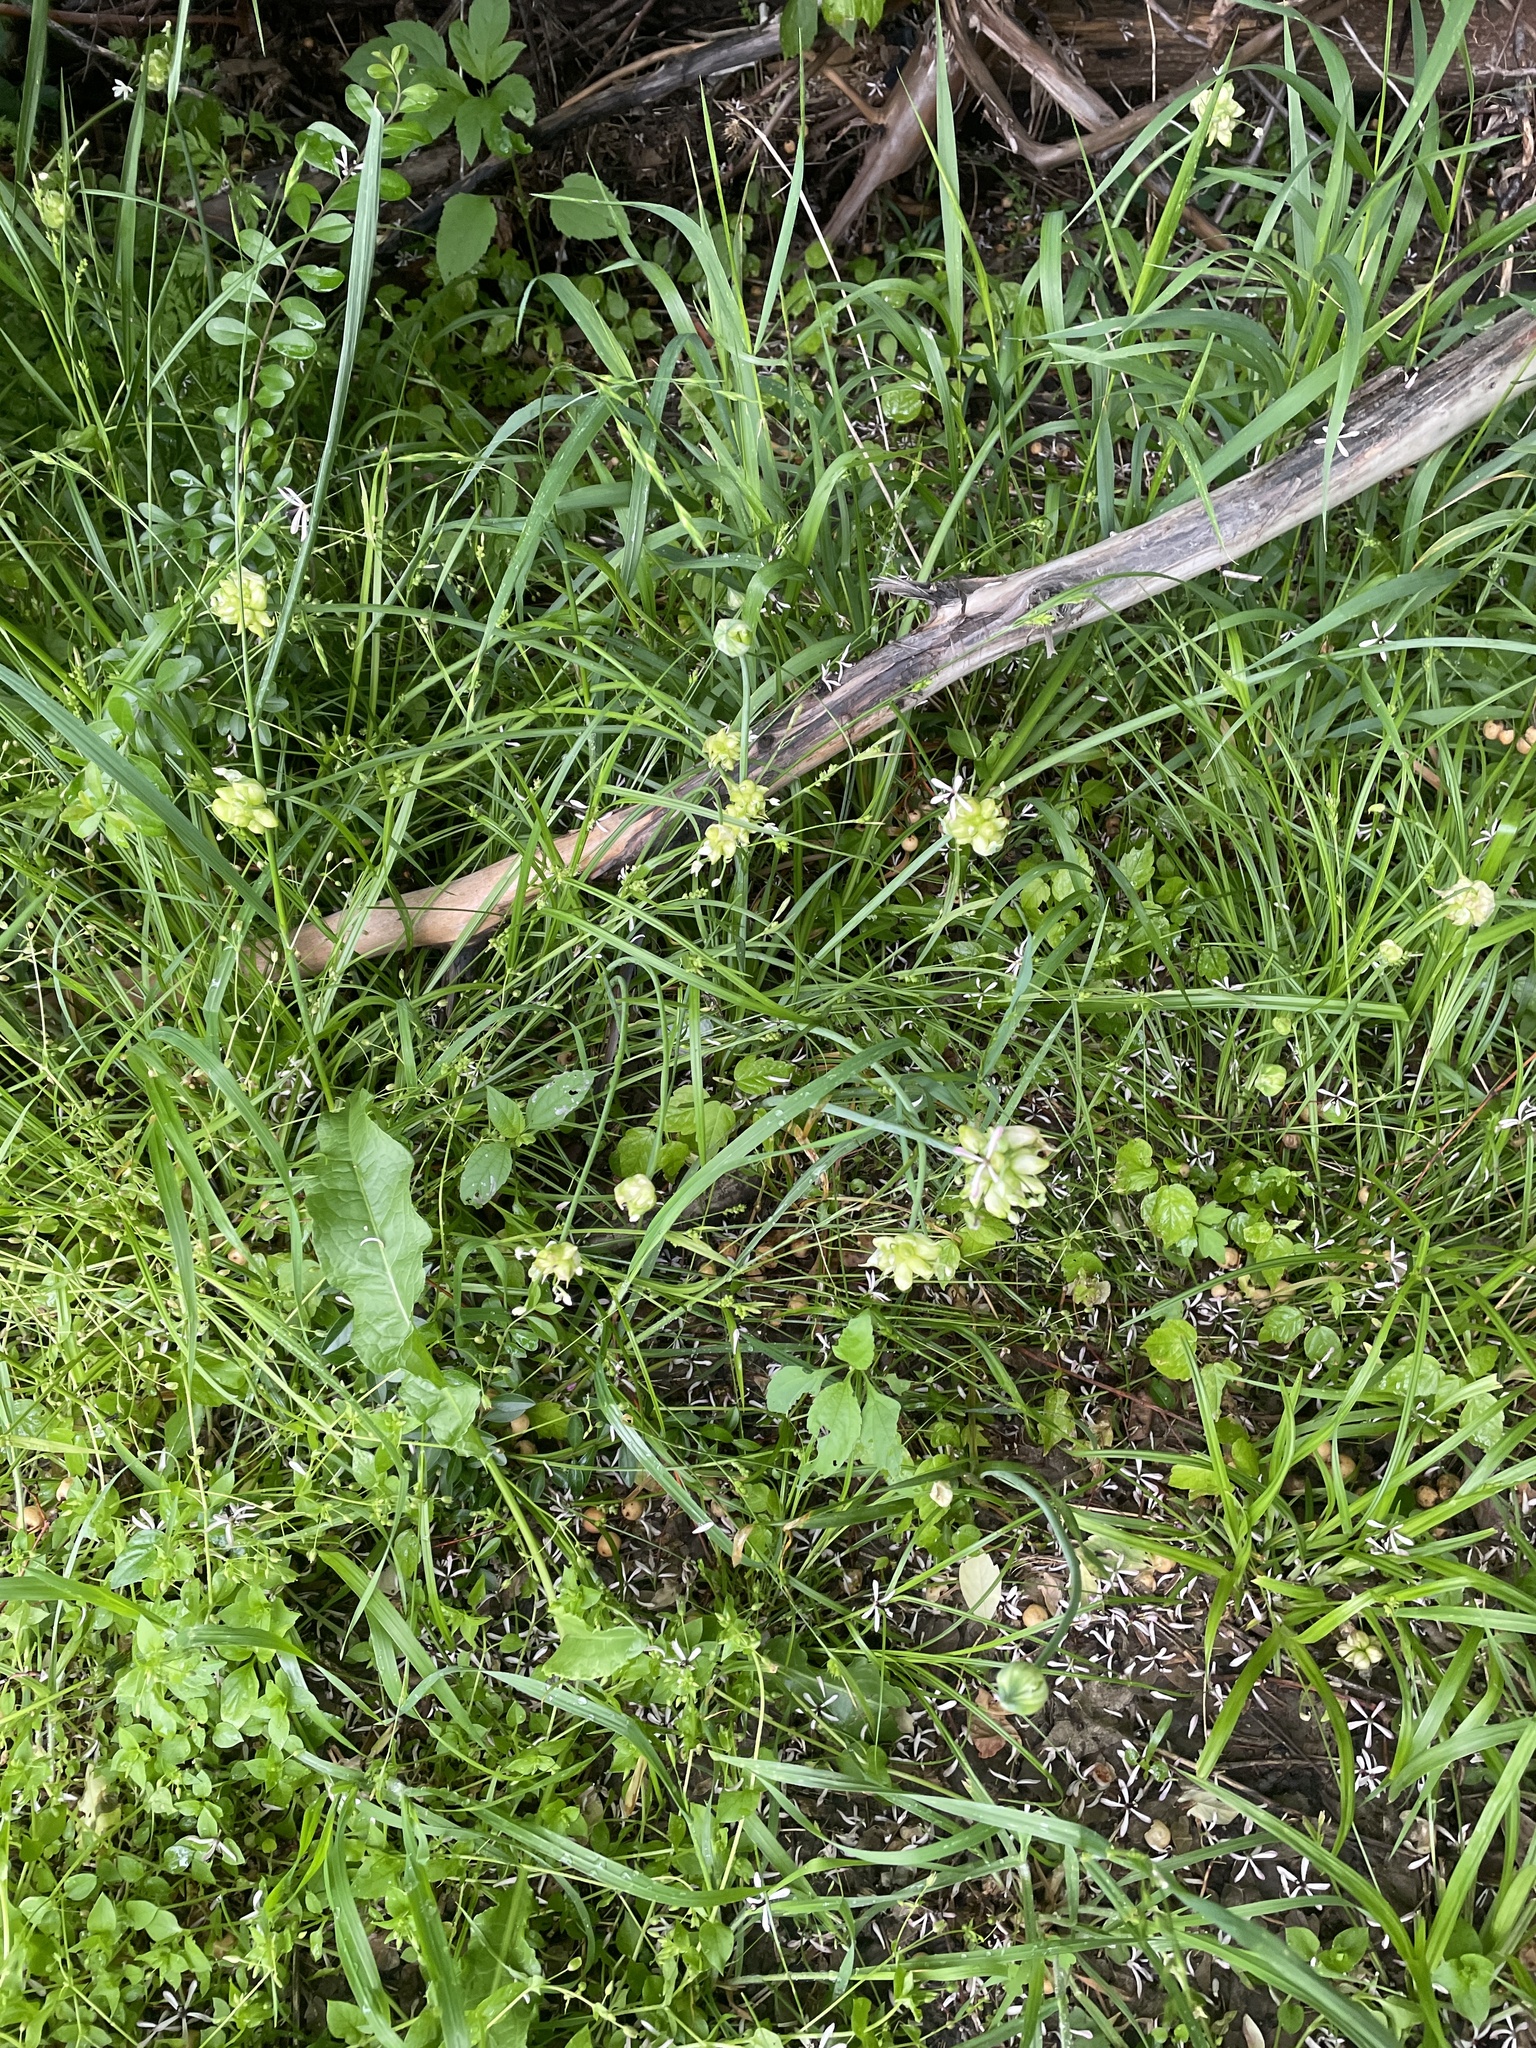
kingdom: Plantae
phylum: Tracheophyta
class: Liliopsida
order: Asparagales
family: Amaryllidaceae
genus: Allium
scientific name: Allium canadense
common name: Meadow garlic
